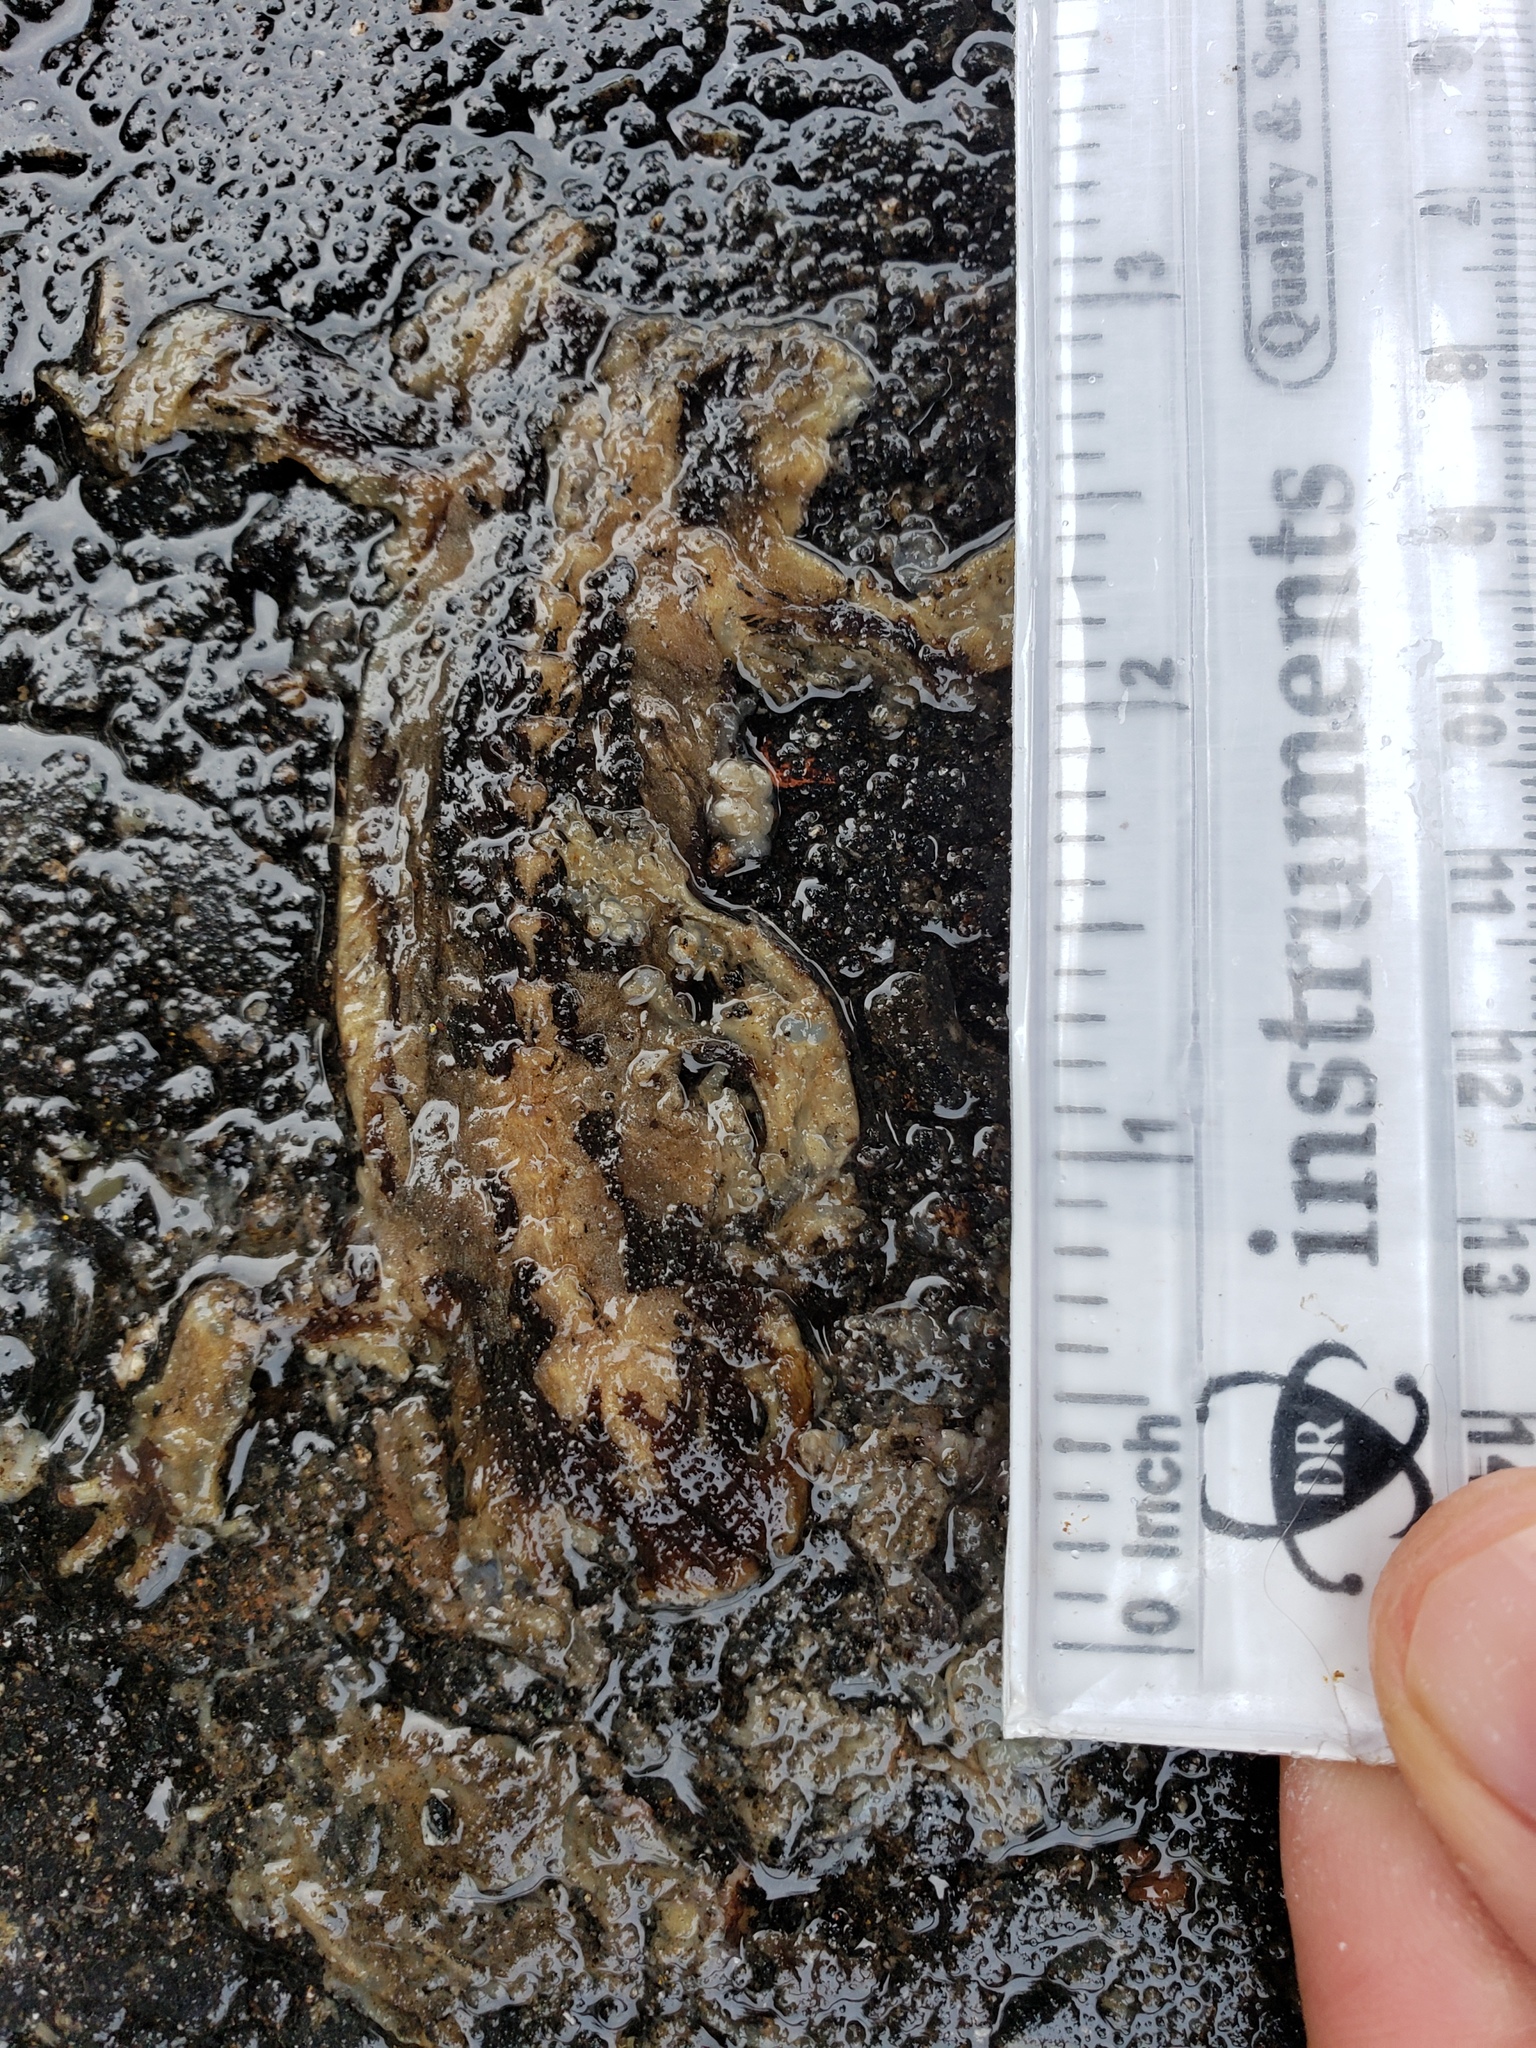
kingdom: Animalia
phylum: Chordata
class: Amphibia
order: Caudata
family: Salamandridae
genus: Taricha
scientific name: Taricha
